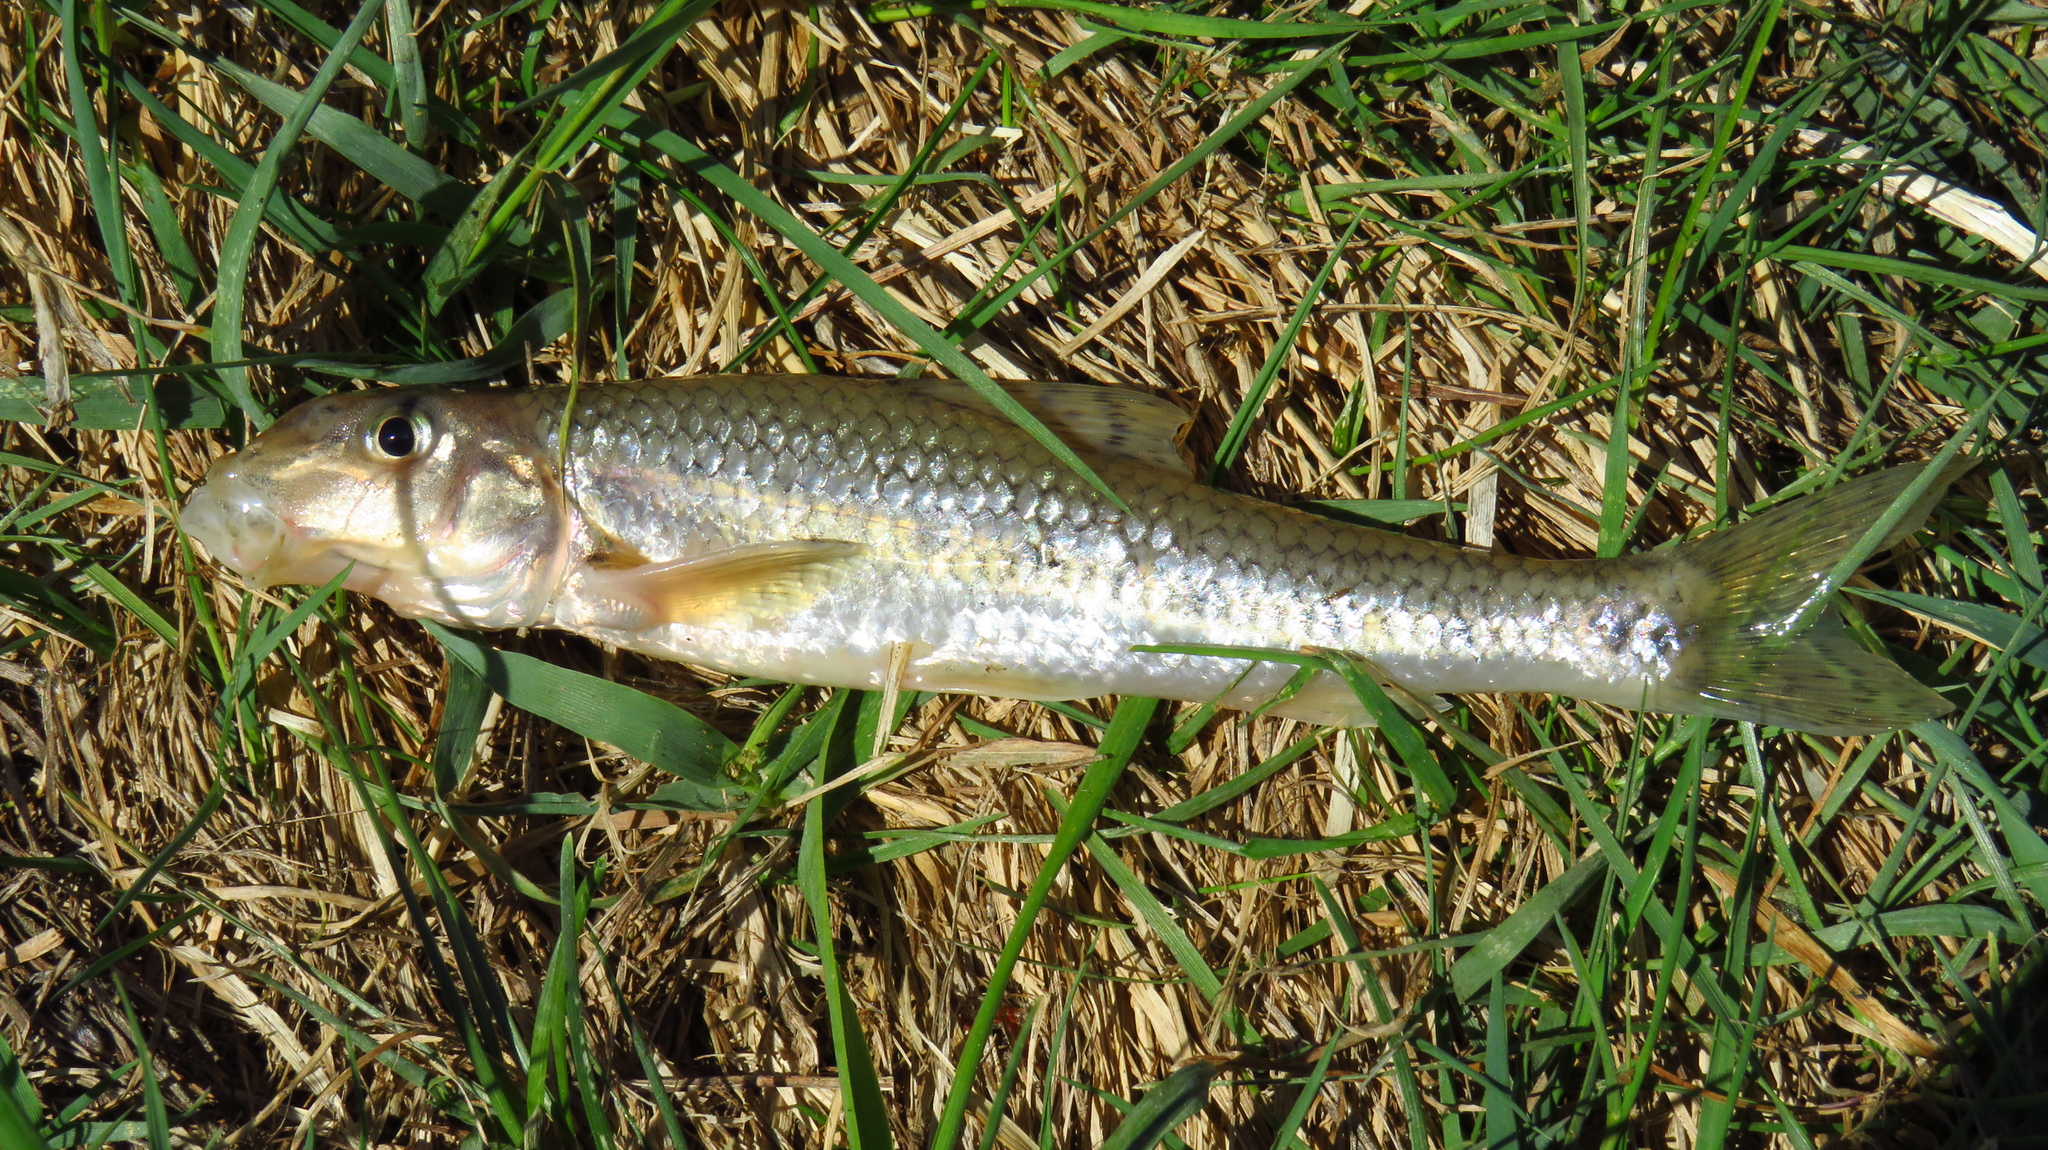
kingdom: Animalia
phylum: Chordata
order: Cypriniformes
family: Cyprinidae
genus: Gobio
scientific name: Gobio volgensis
